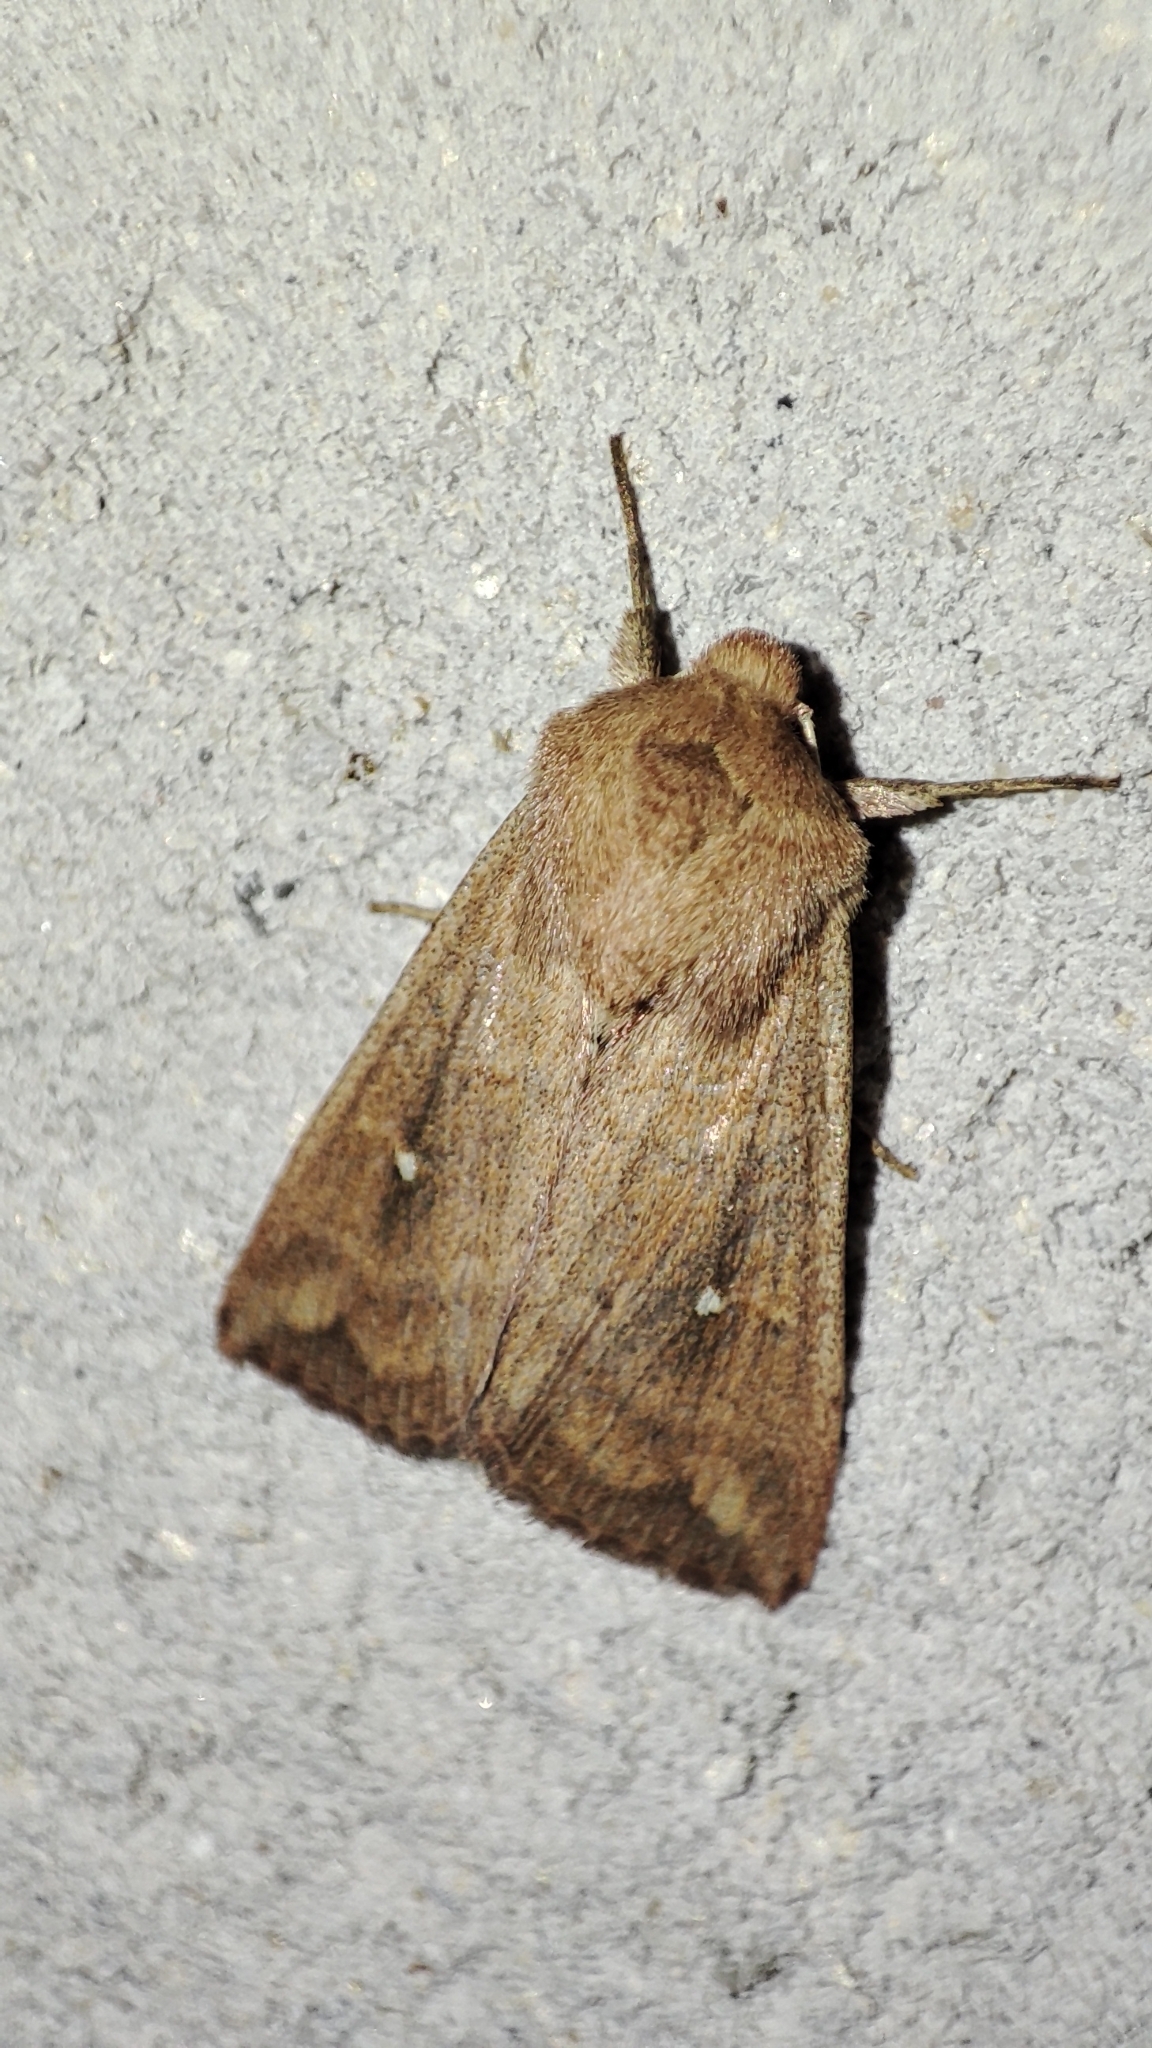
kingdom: Animalia
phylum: Arthropoda
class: Insecta
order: Lepidoptera
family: Noctuidae
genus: Mythimna
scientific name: Mythimna albipuncta
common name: White-point
